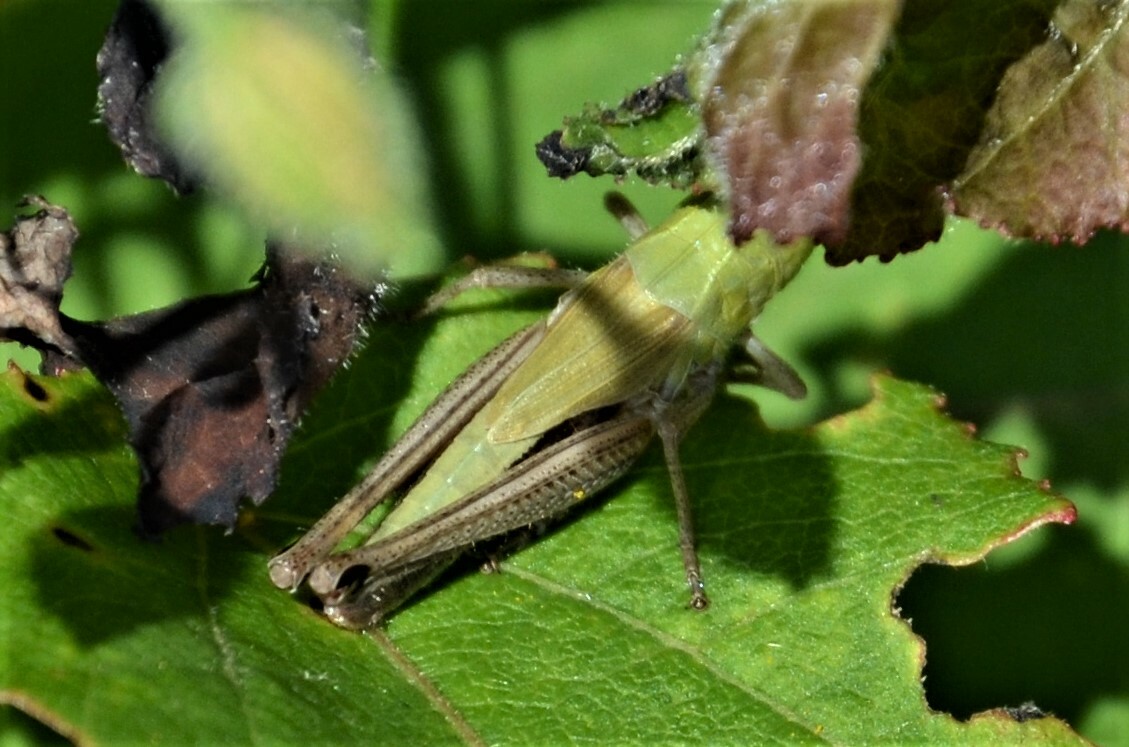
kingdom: Animalia
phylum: Arthropoda
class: Insecta
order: Orthoptera
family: Acrididae
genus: Pseudochorthippus
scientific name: Pseudochorthippus parallelus
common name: Meadow grasshopper
